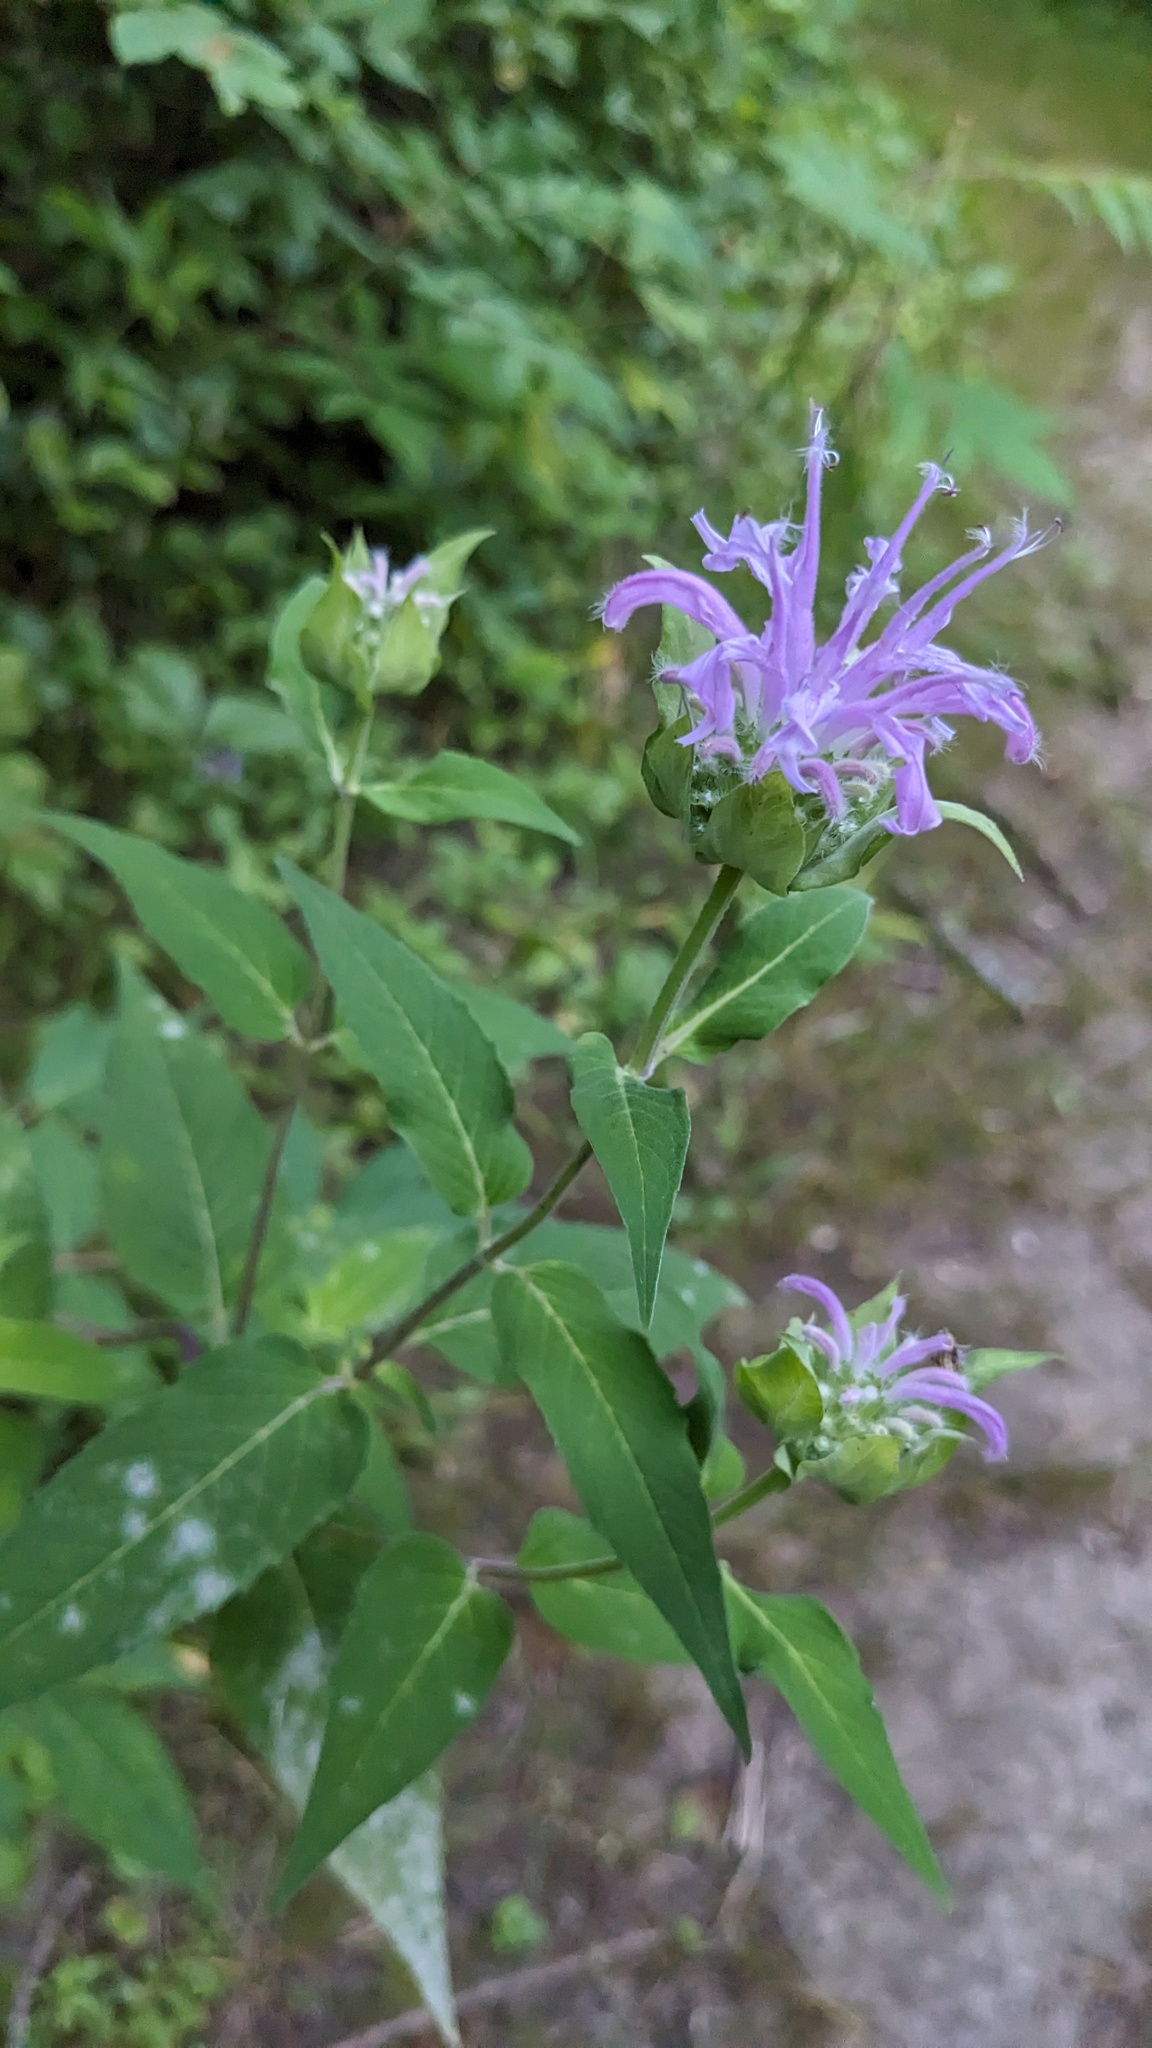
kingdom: Fungi
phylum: Ascomycota
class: Leotiomycetes
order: Helotiales
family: Erysiphaceae
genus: Golovinomyces
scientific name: Golovinomyces monardae
